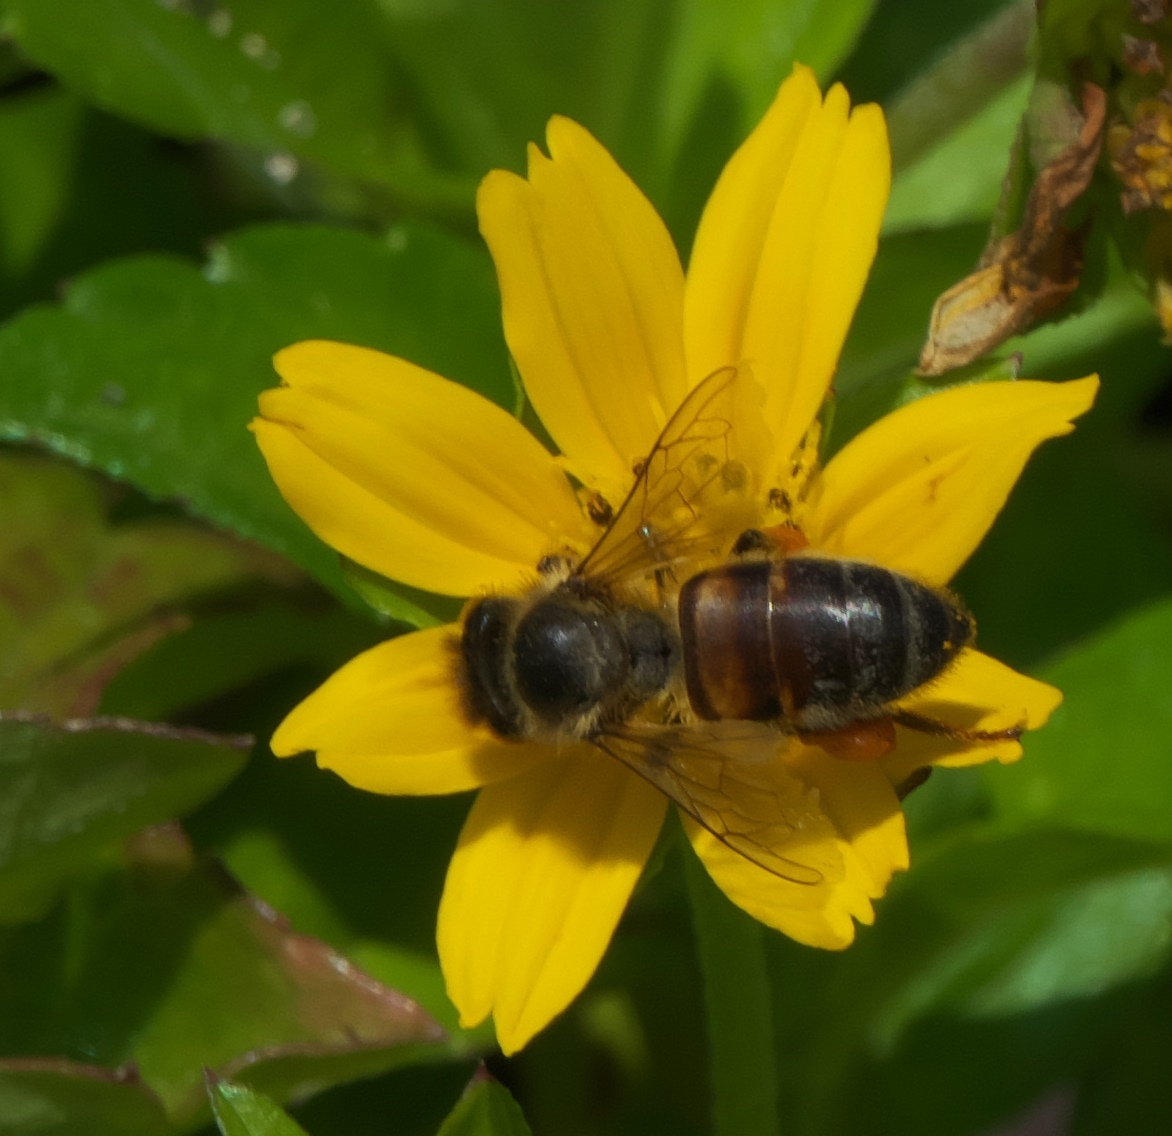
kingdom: Animalia
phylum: Arthropoda
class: Insecta
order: Hymenoptera
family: Apidae
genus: Apis
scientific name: Apis mellifera
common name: Honey bee
